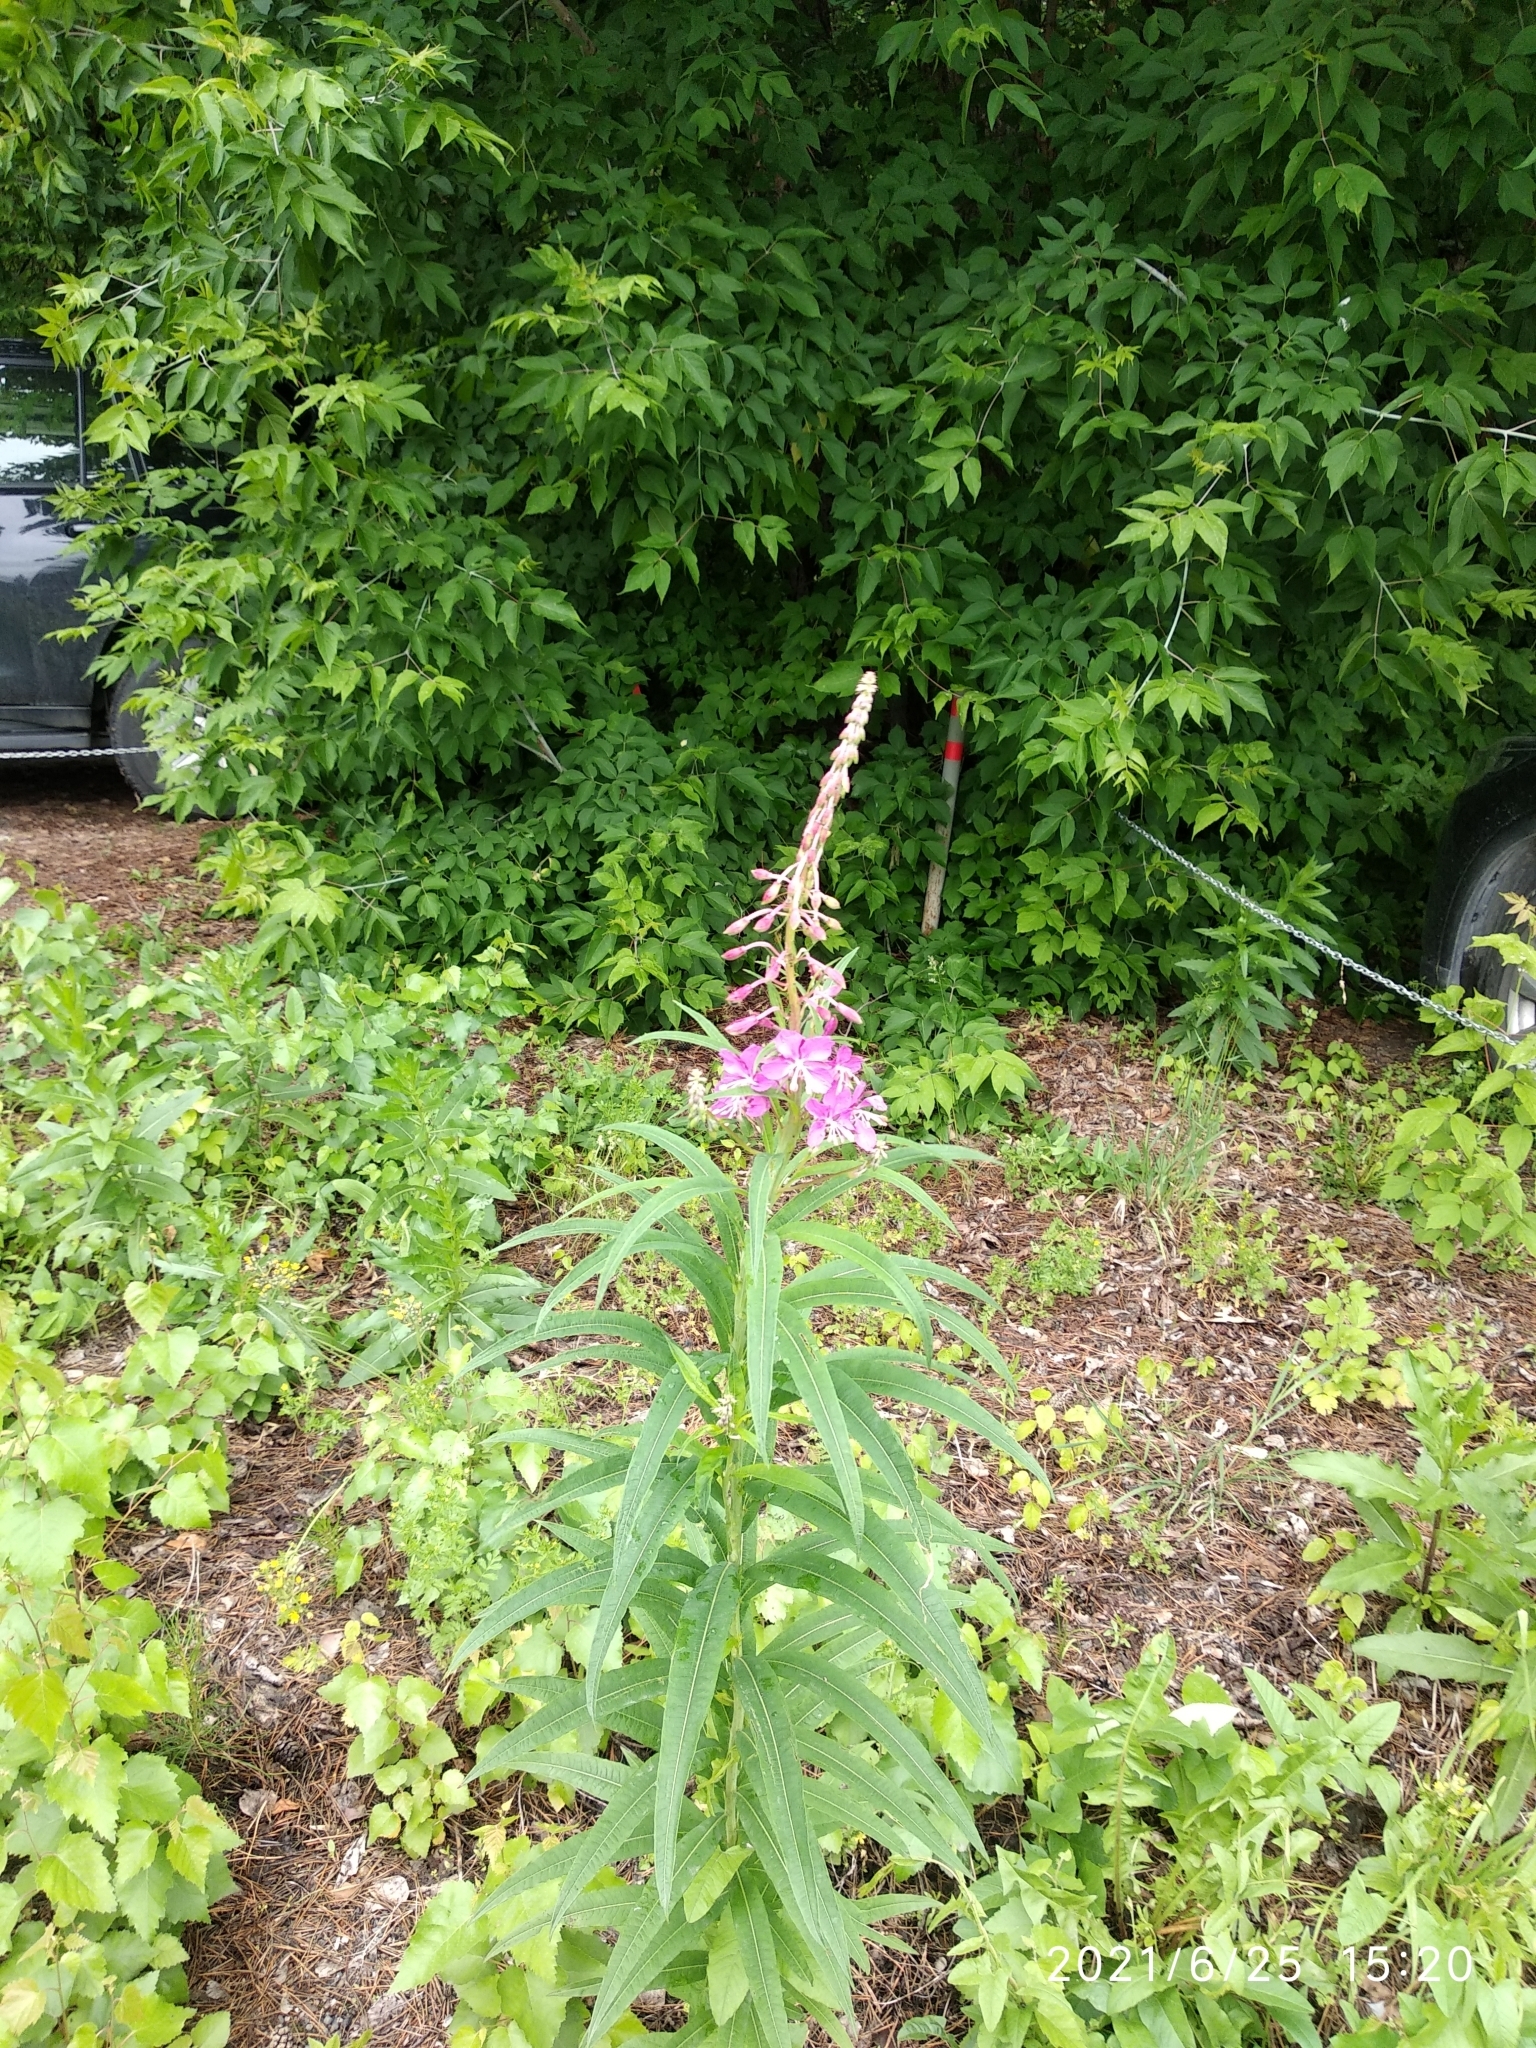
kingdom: Plantae
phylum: Tracheophyta
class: Magnoliopsida
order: Myrtales
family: Onagraceae
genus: Chamaenerion
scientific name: Chamaenerion angustifolium
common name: Fireweed
